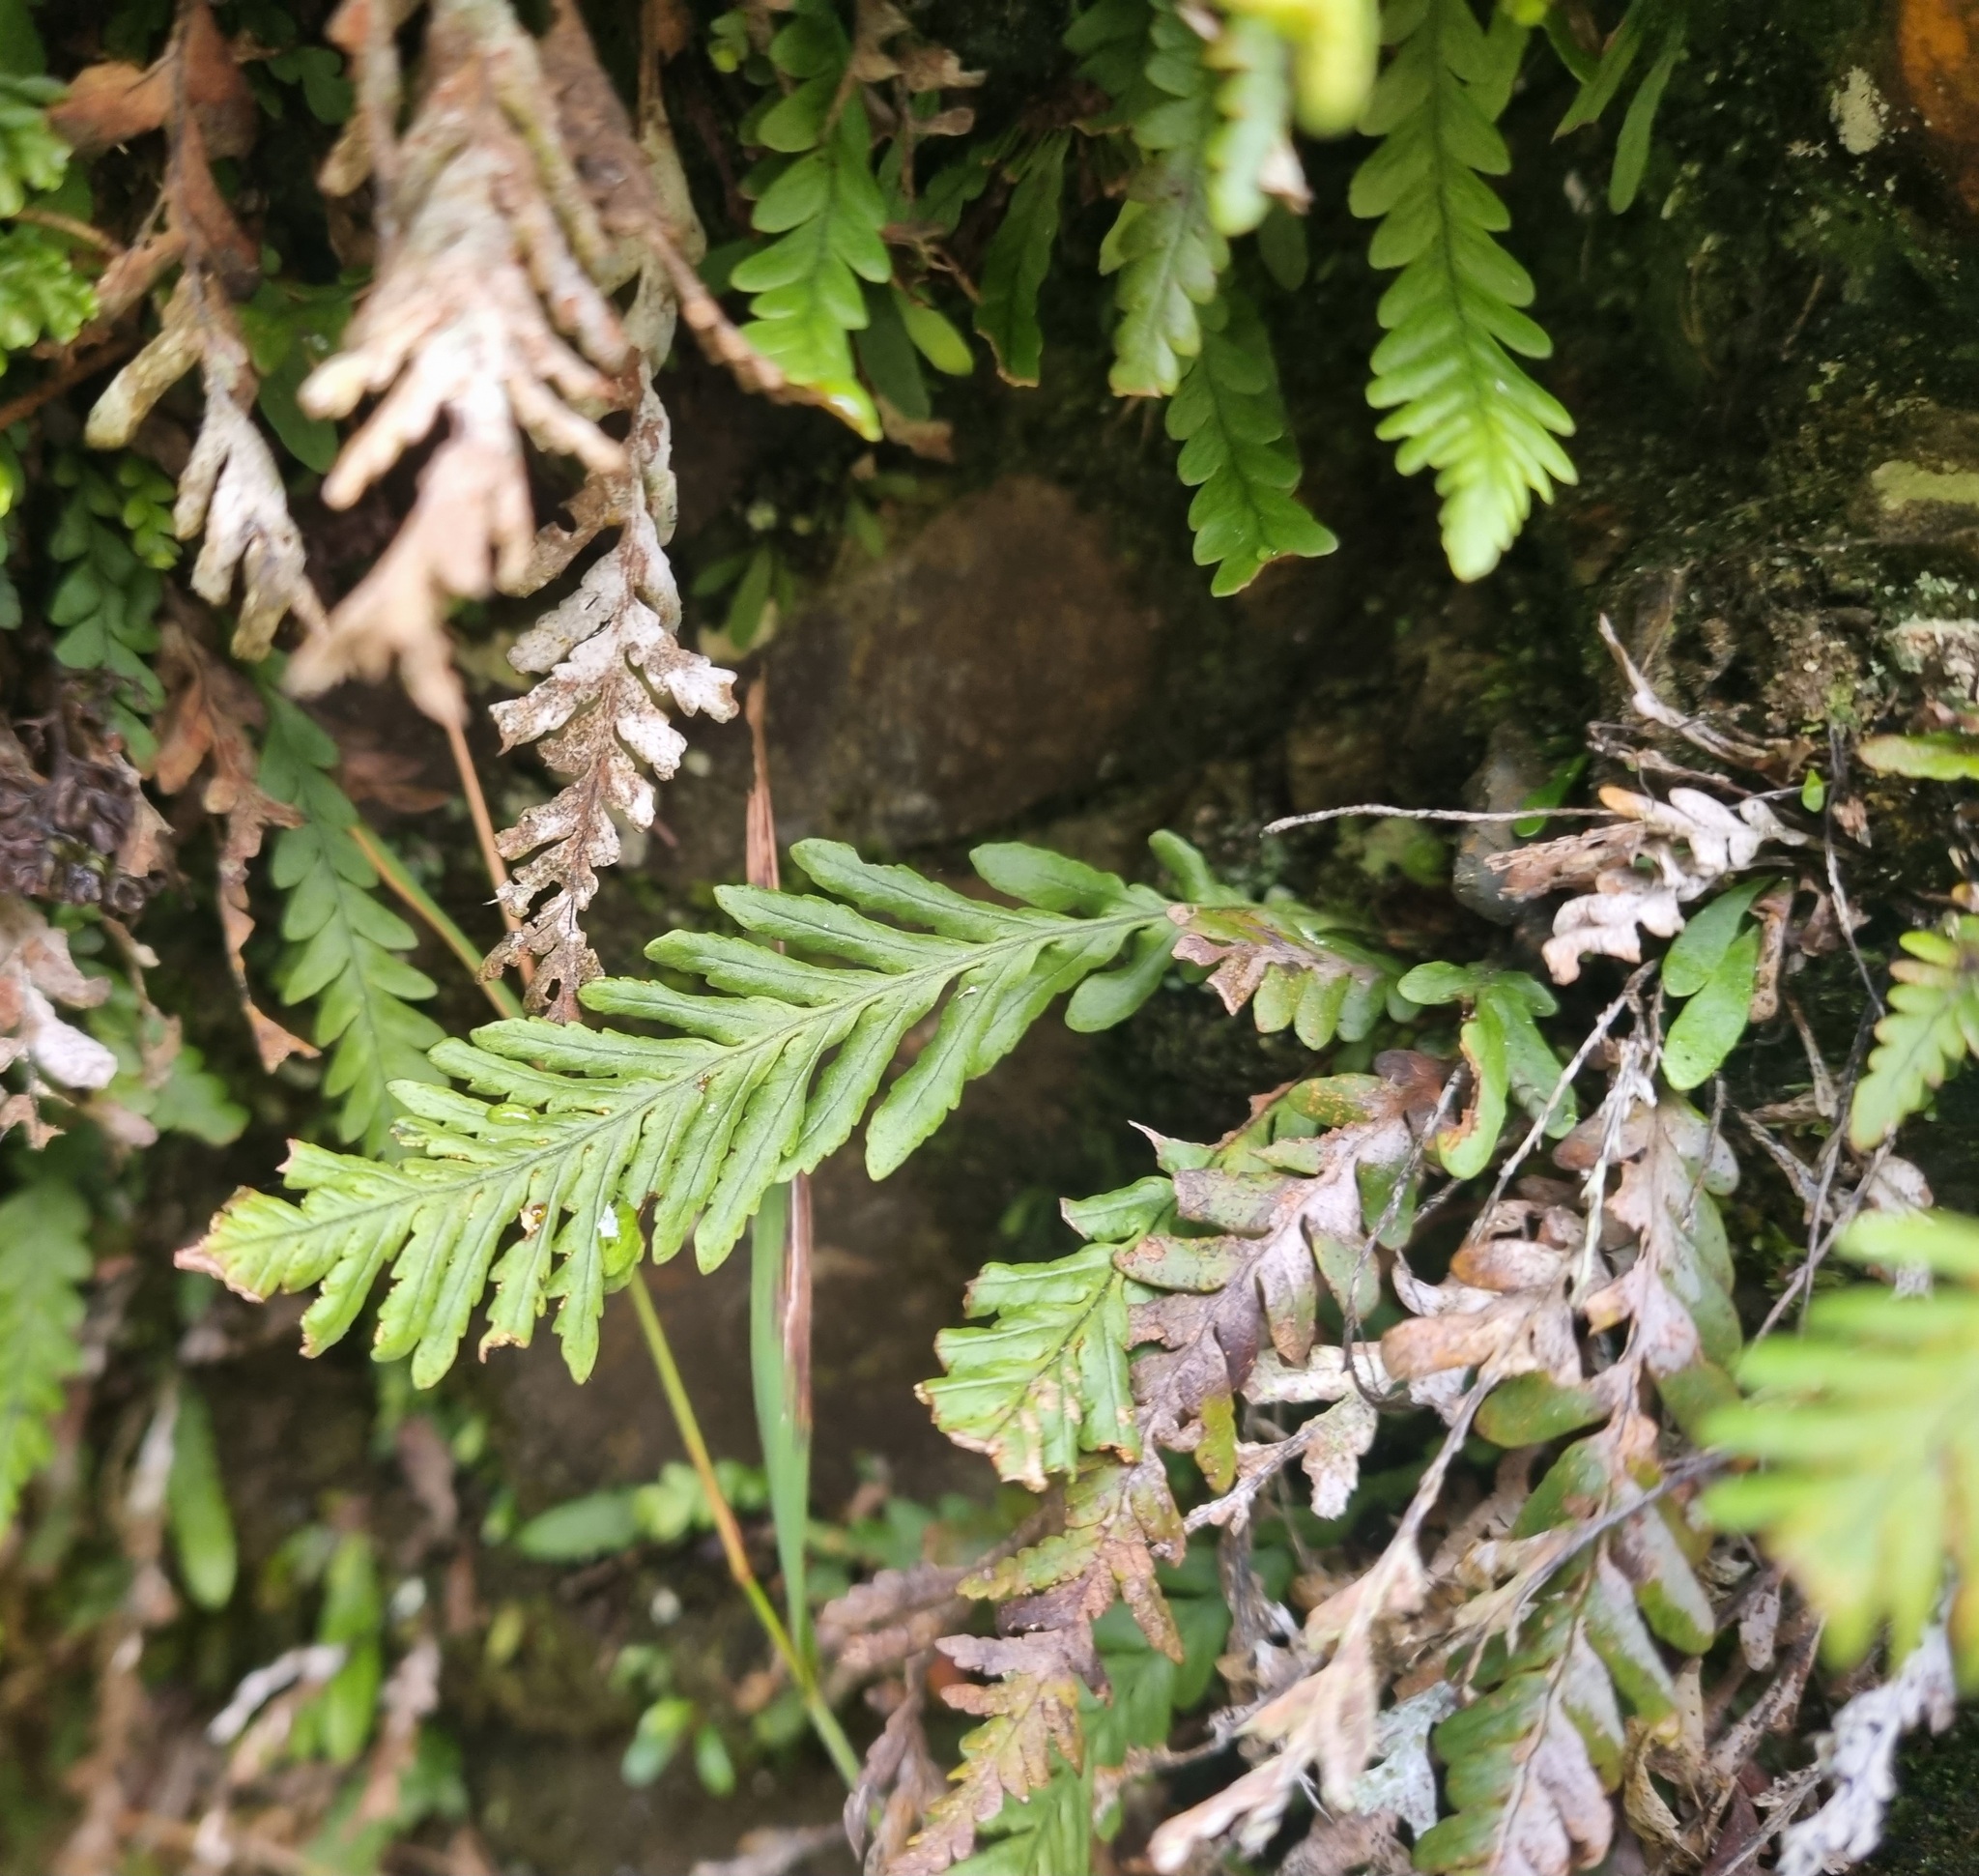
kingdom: Plantae
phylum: Tracheophyta
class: Polypodiopsida
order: Polypodiales
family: Polypodiaceae
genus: Notogrammitis
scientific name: Notogrammitis heterophylla
